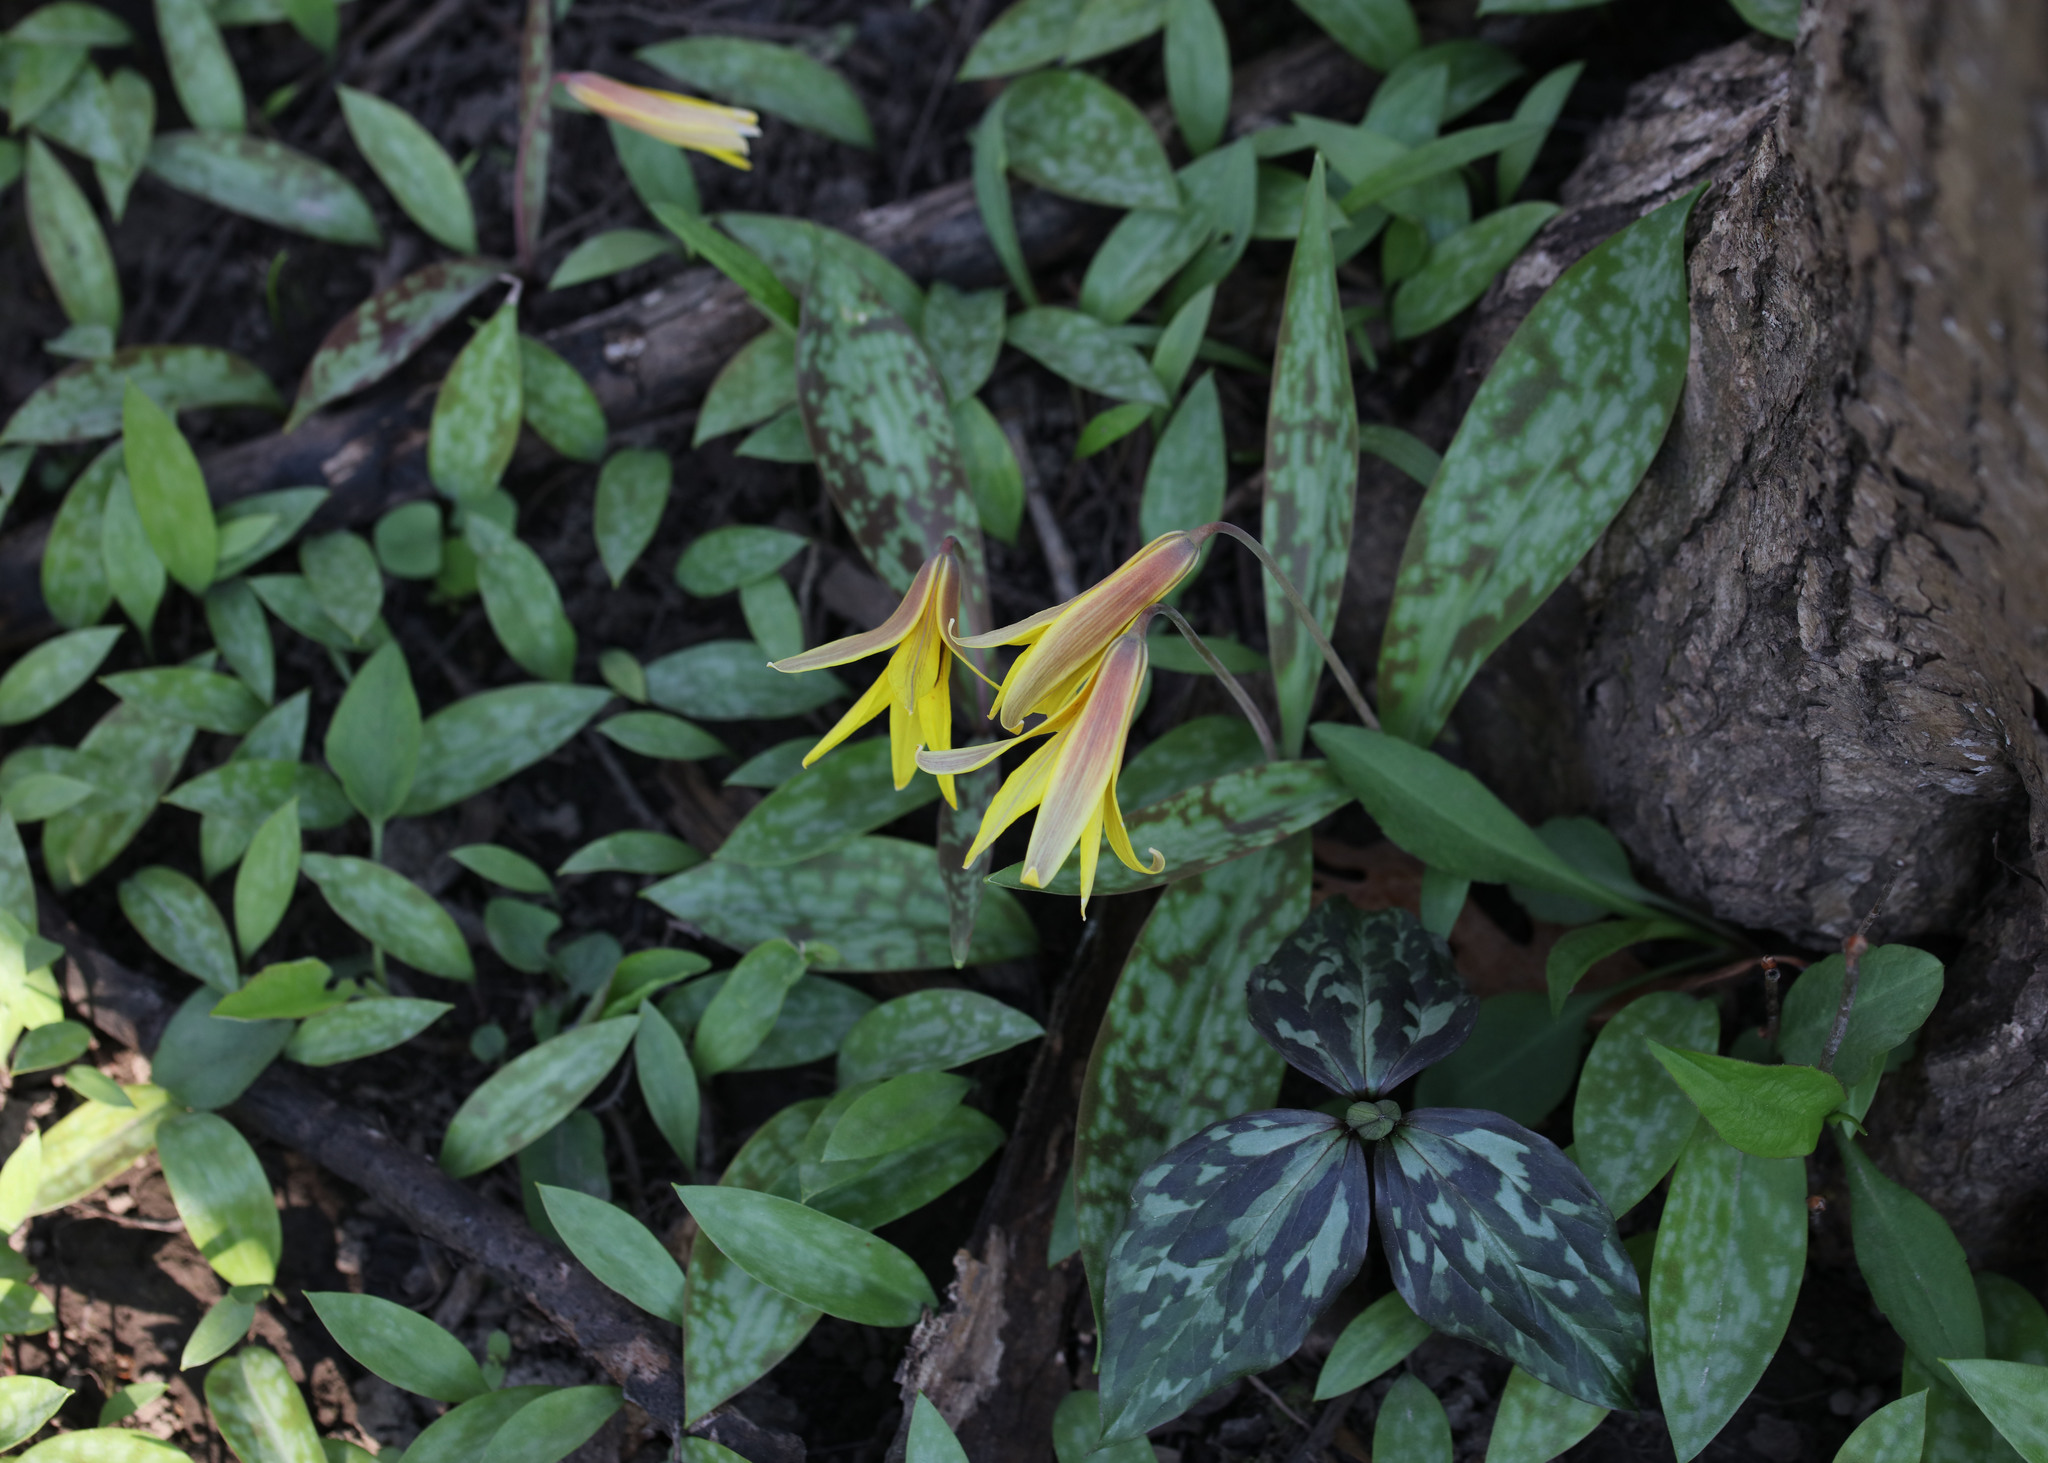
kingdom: Plantae
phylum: Tracheophyta
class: Liliopsida
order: Liliales
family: Liliaceae
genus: Erythronium
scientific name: Erythronium americanum
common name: Yellow adder's-tongue
